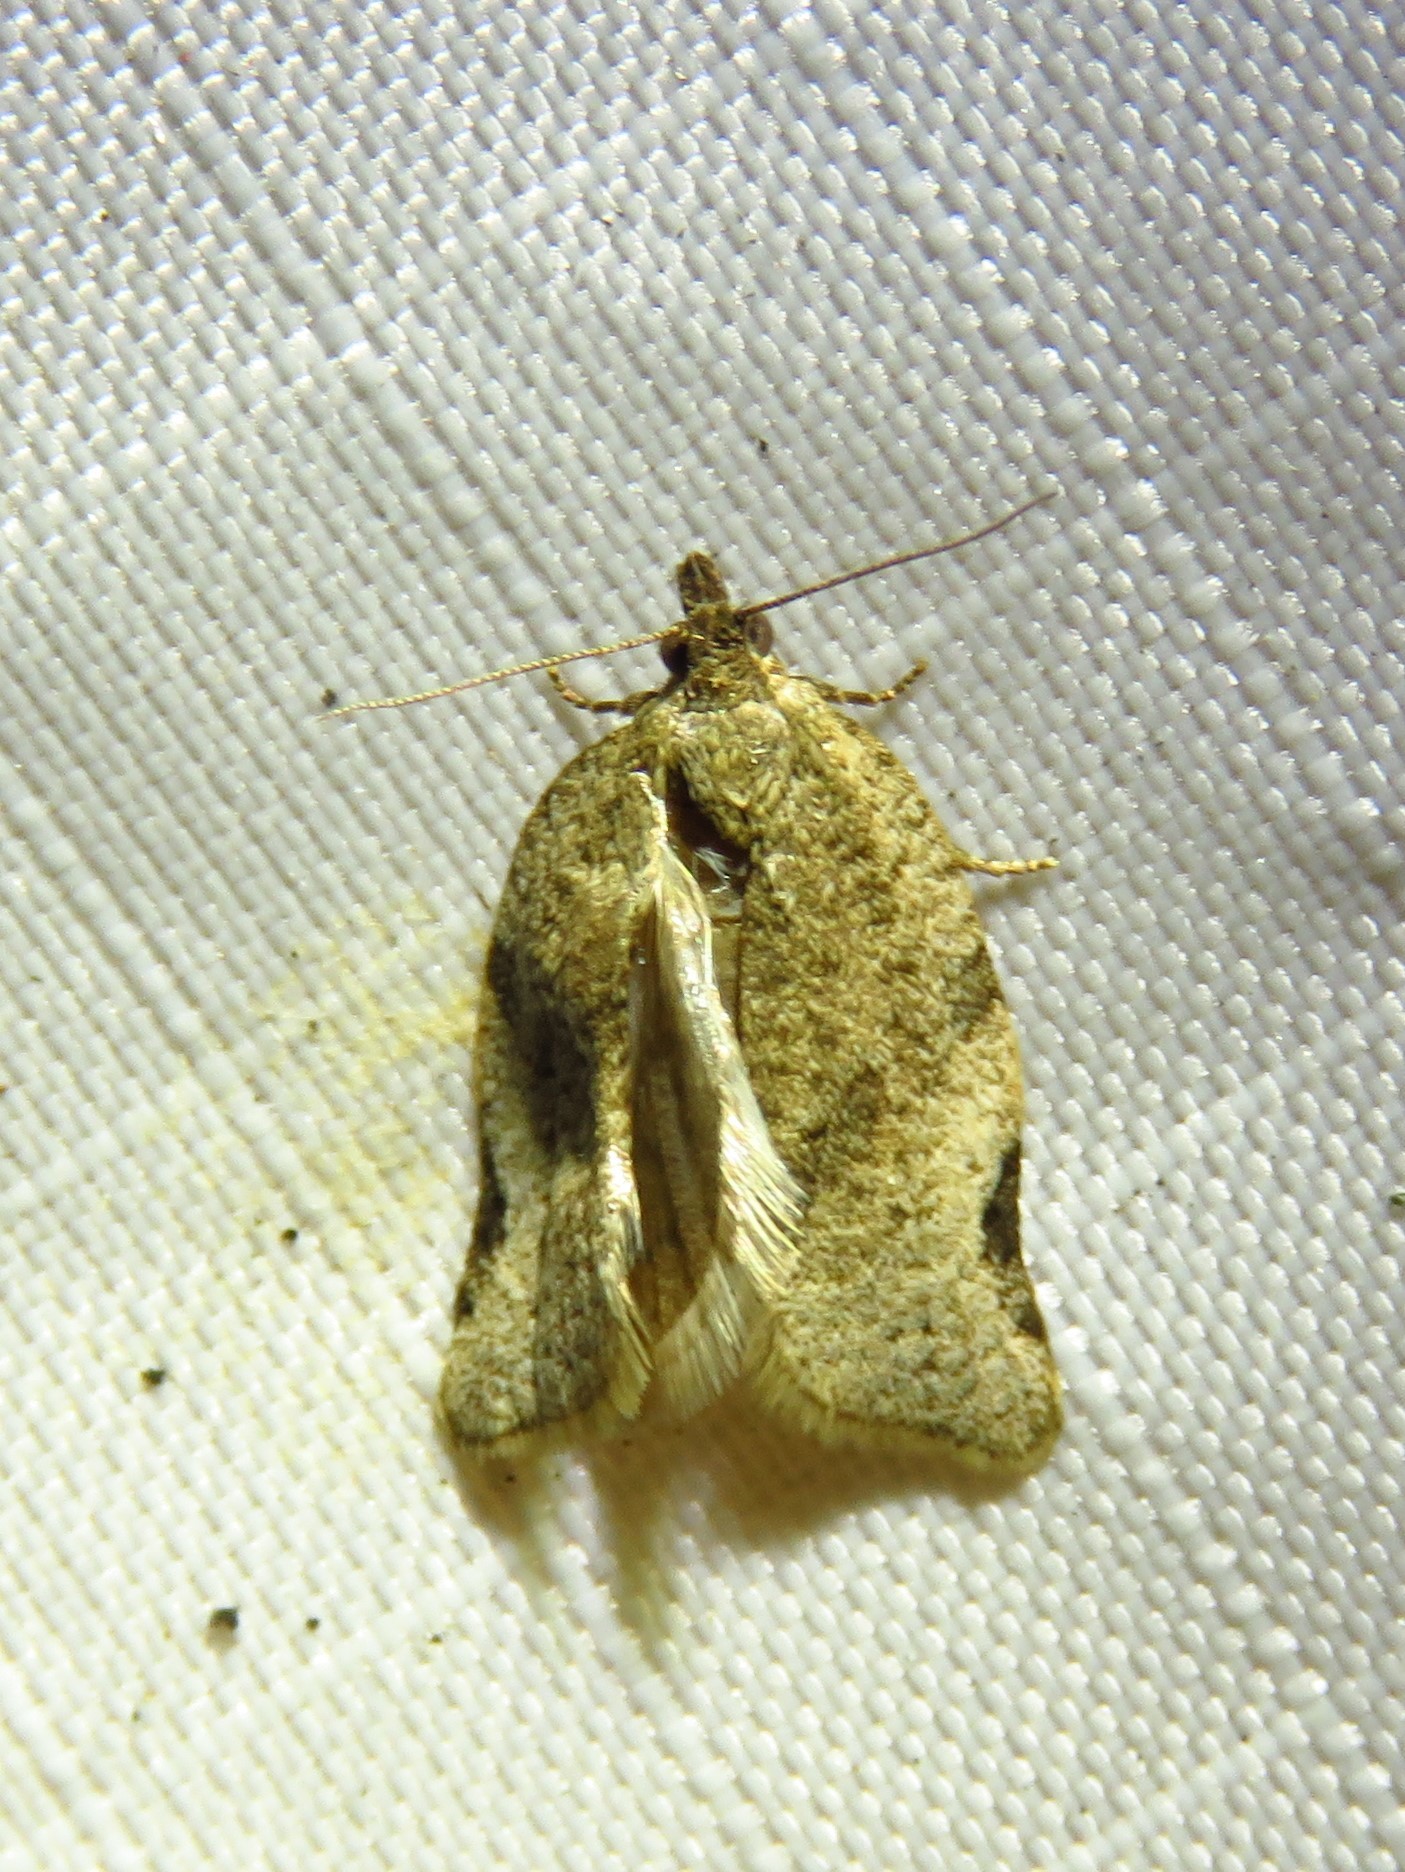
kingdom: Animalia
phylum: Arthropoda
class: Insecta
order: Lepidoptera
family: Tortricidae
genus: Clepsis
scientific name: Clepsis virescana
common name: Greenish apple moth
